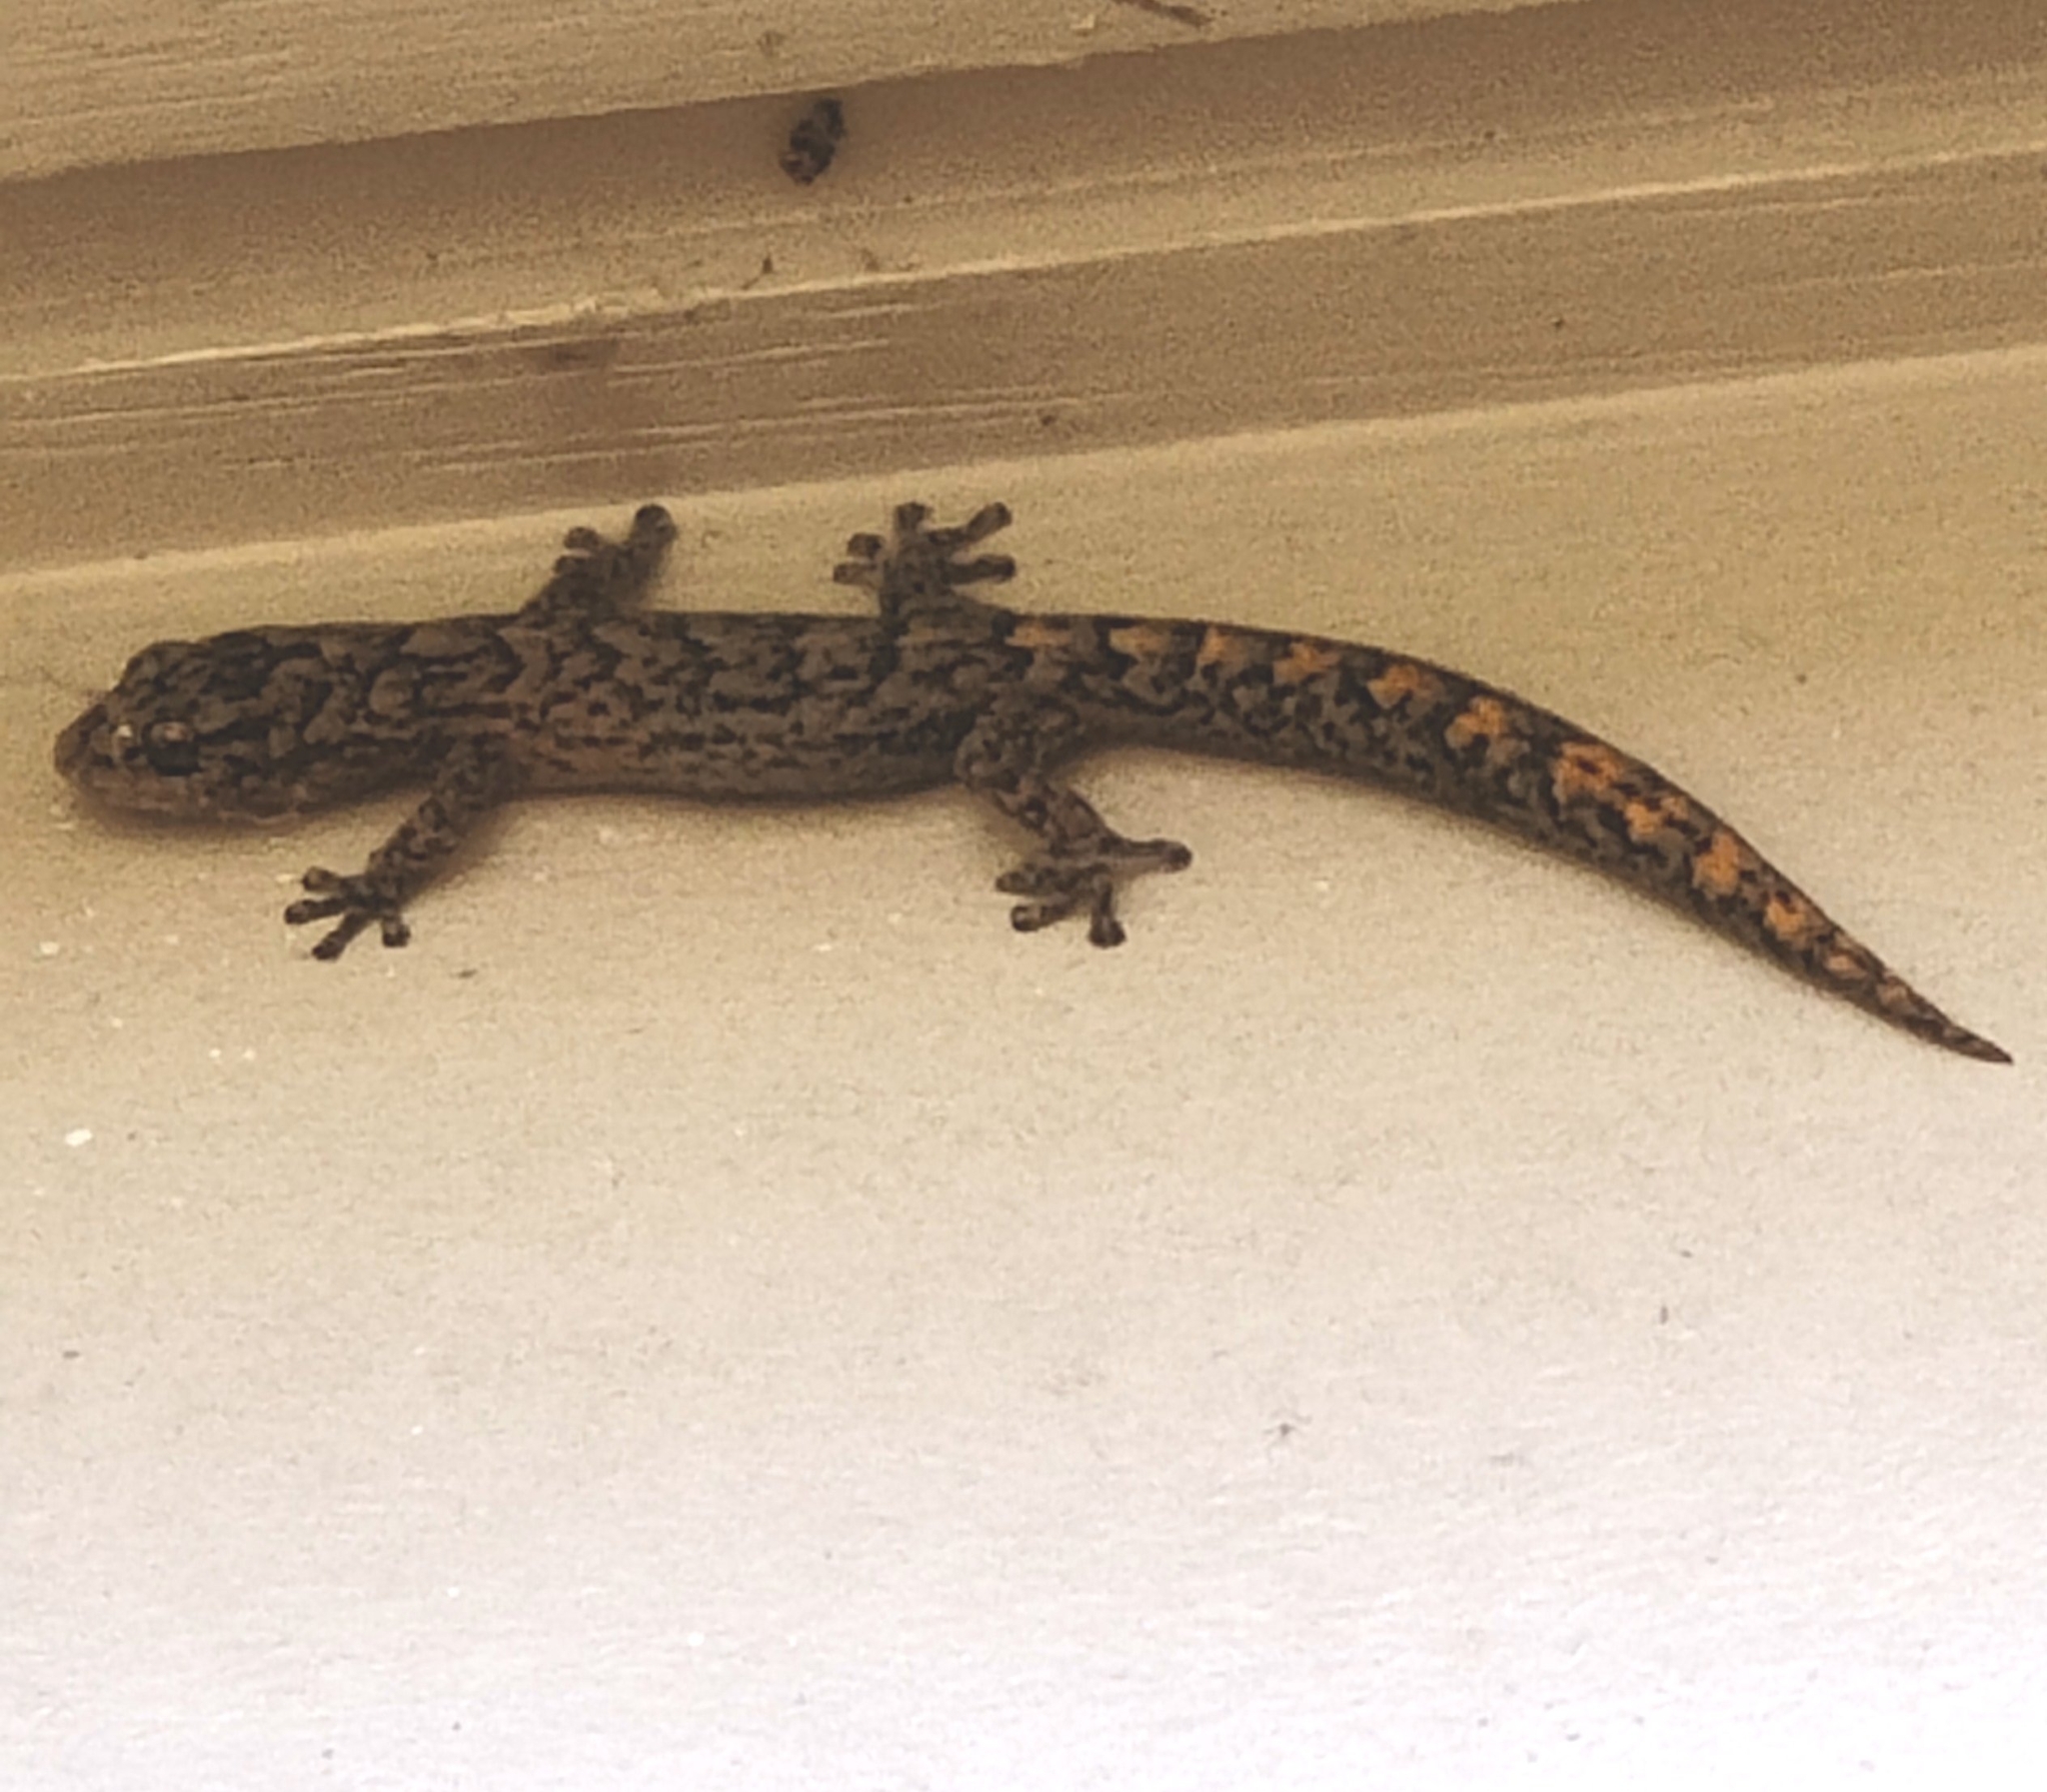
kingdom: Animalia
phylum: Chordata
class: Squamata
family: Gekkonidae
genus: Christinus
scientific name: Christinus marmoratus
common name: Marbled gecko
